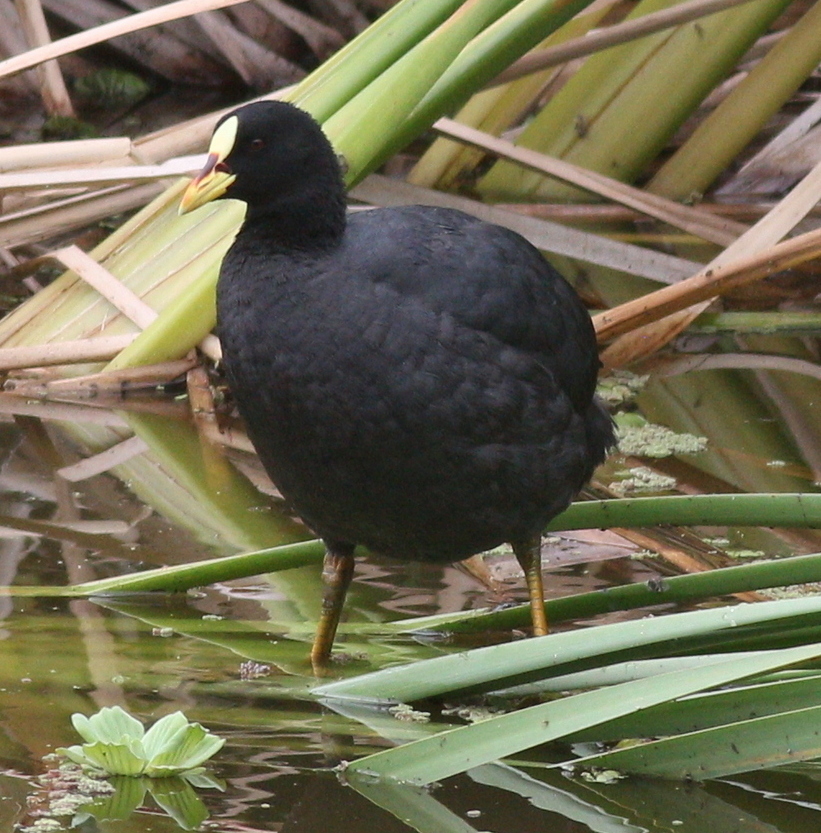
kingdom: Animalia
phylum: Chordata
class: Aves
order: Gruiformes
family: Rallidae
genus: Fulica
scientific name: Fulica armillata
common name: Red-gartered coot
